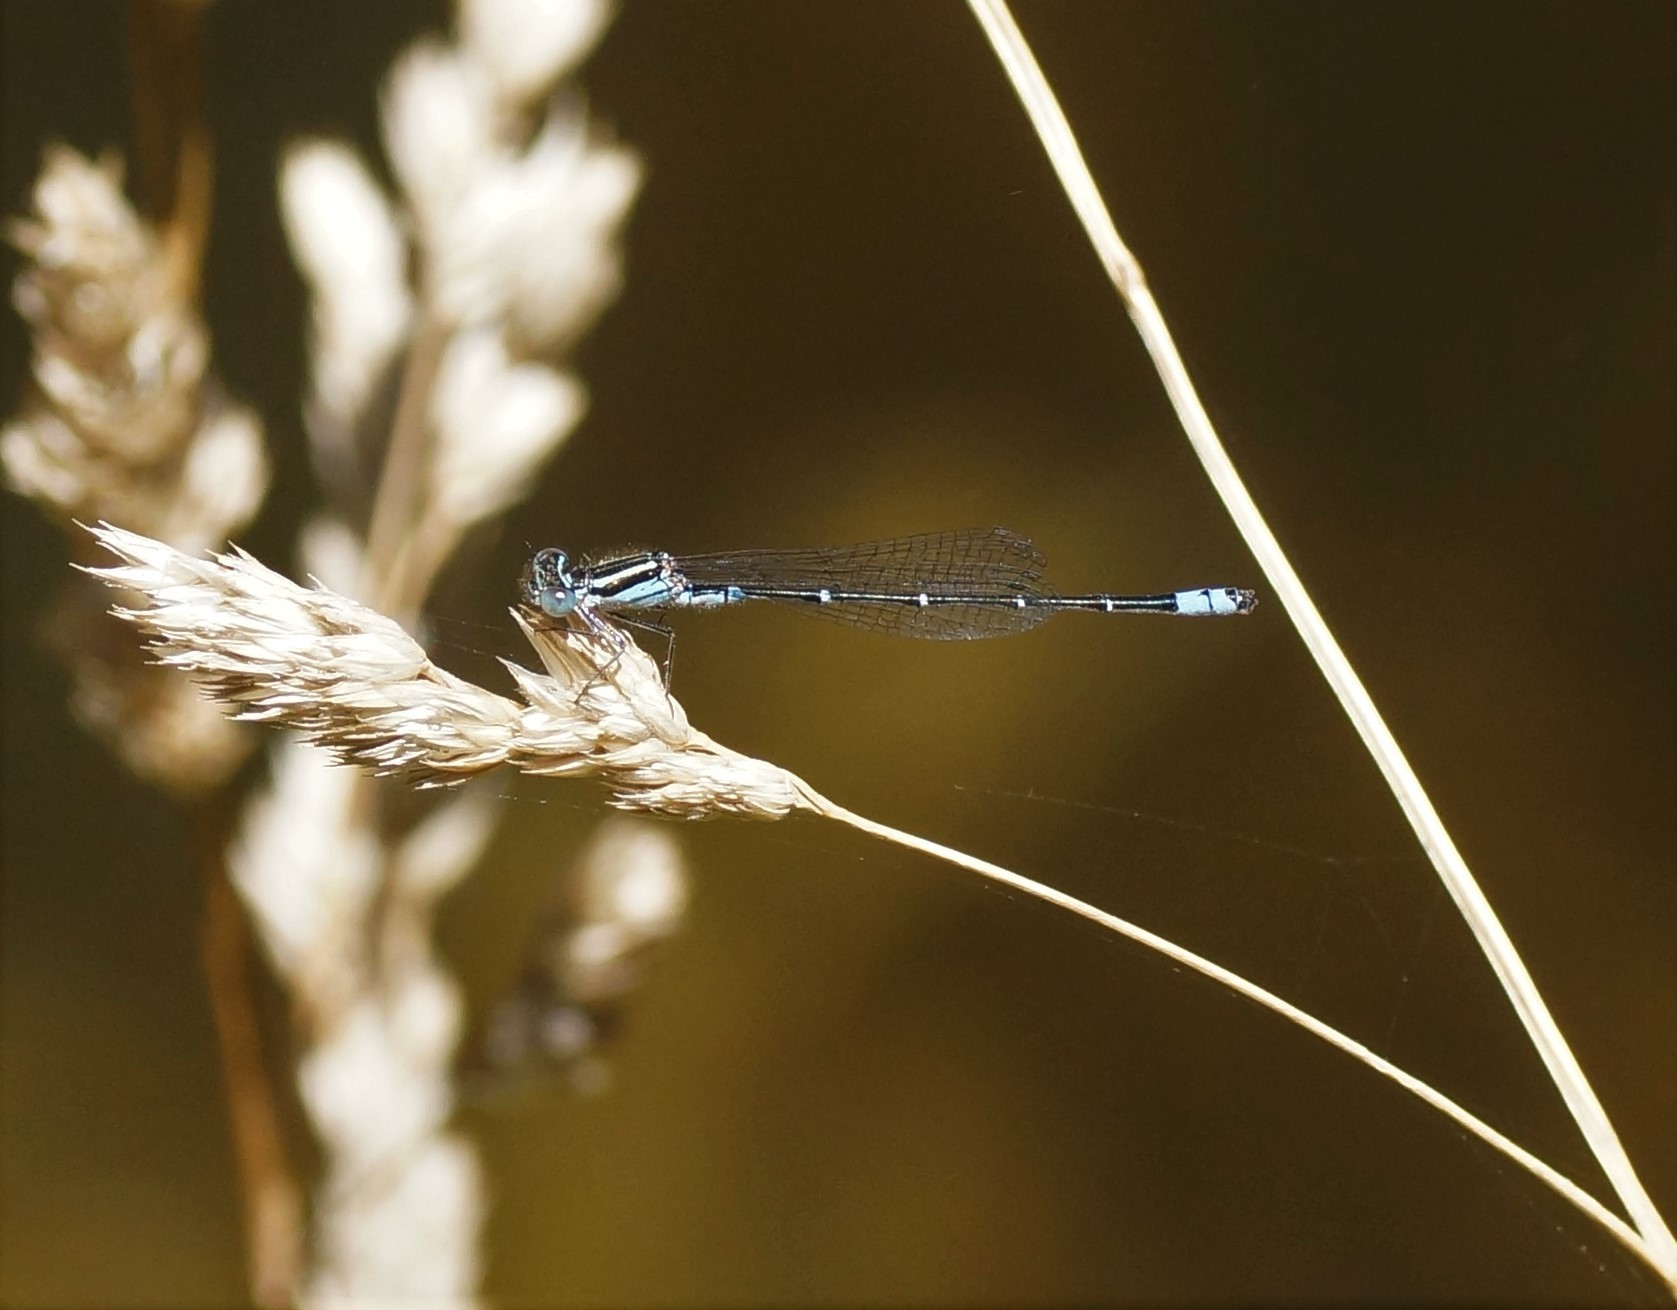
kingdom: Animalia
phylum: Arthropoda
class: Insecta
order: Odonata
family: Coenagrionidae
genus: Austroagrion
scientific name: Austroagrion watsoni
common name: Eastern billabongfly
